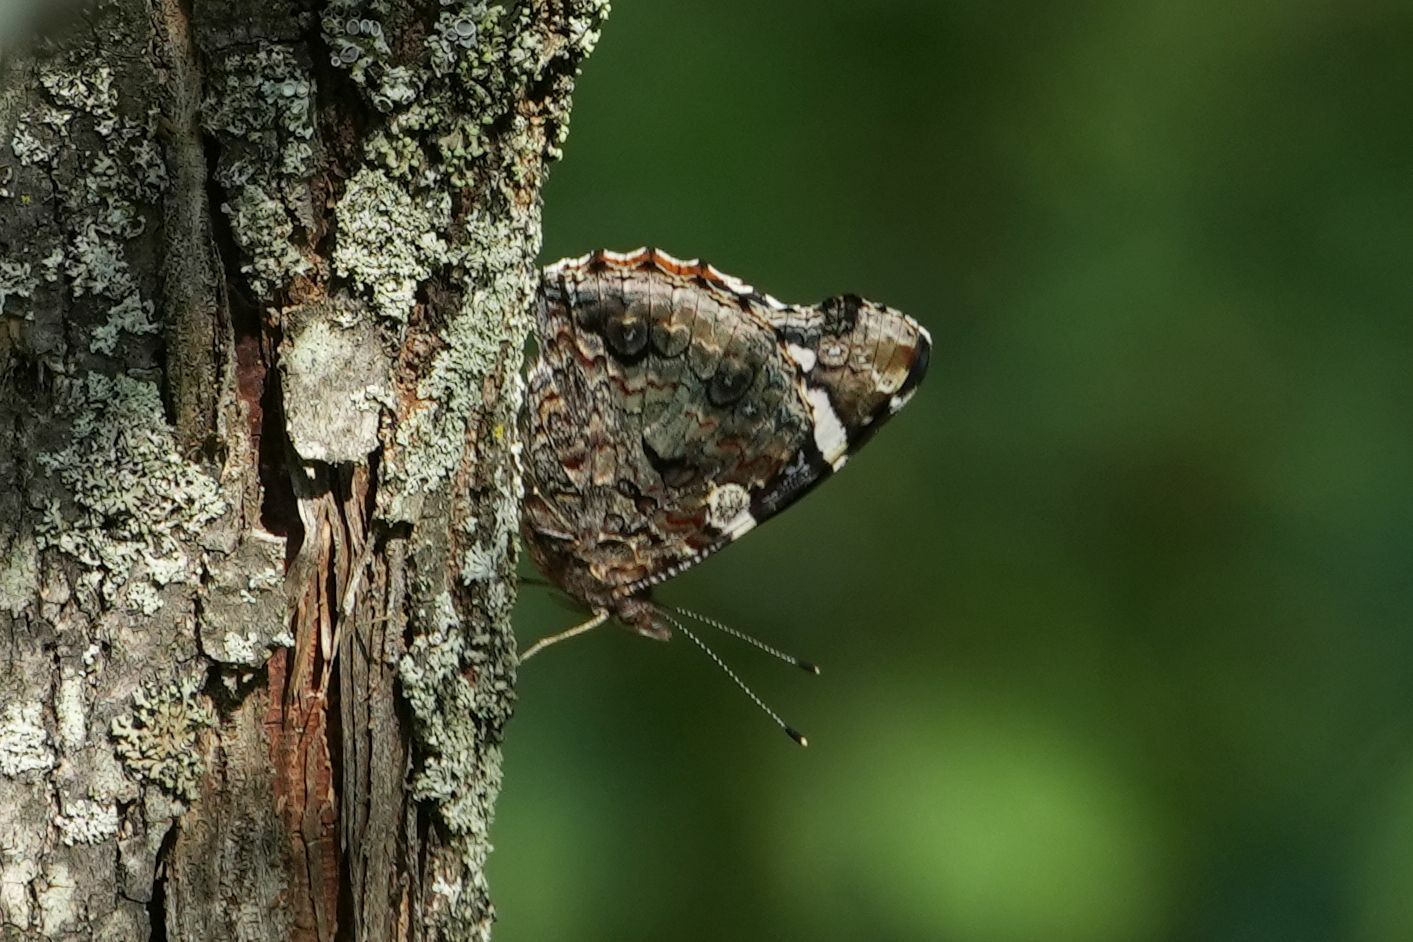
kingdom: Animalia
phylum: Arthropoda
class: Insecta
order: Lepidoptera
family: Nymphalidae
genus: Vanessa
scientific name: Vanessa atalanta
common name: Red admiral
